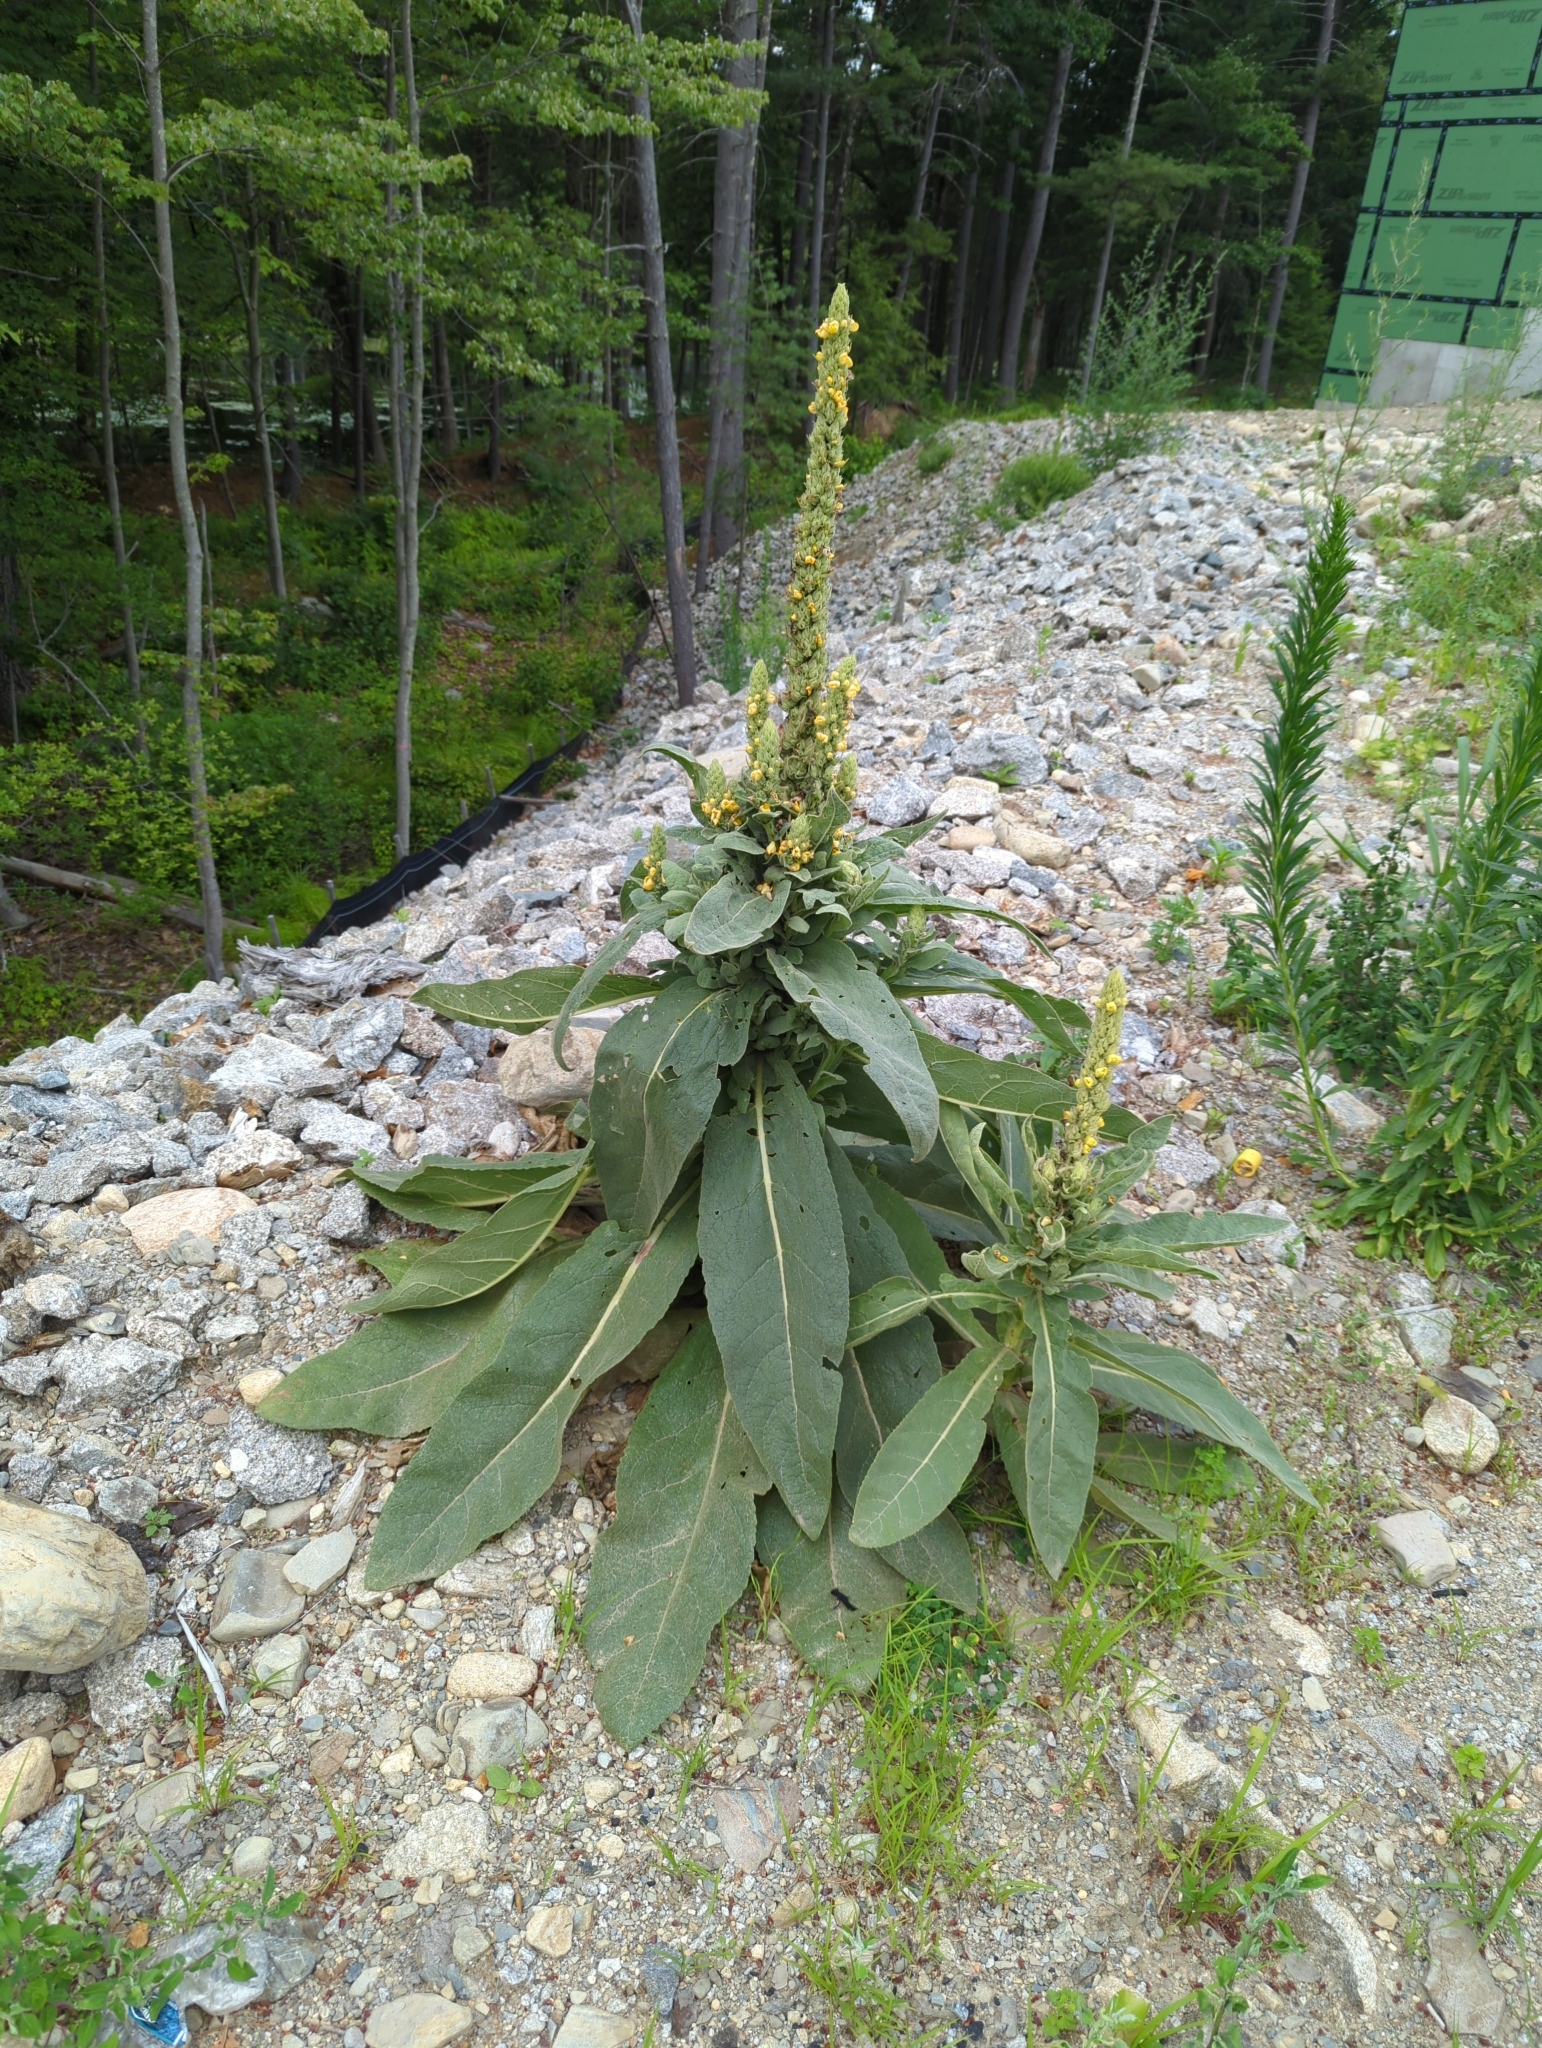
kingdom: Plantae
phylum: Tracheophyta
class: Magnoliopsida
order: Lamiales
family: Scrophulariaceae
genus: Verbascum
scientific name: Verbascum thapsus
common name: Common mullein
